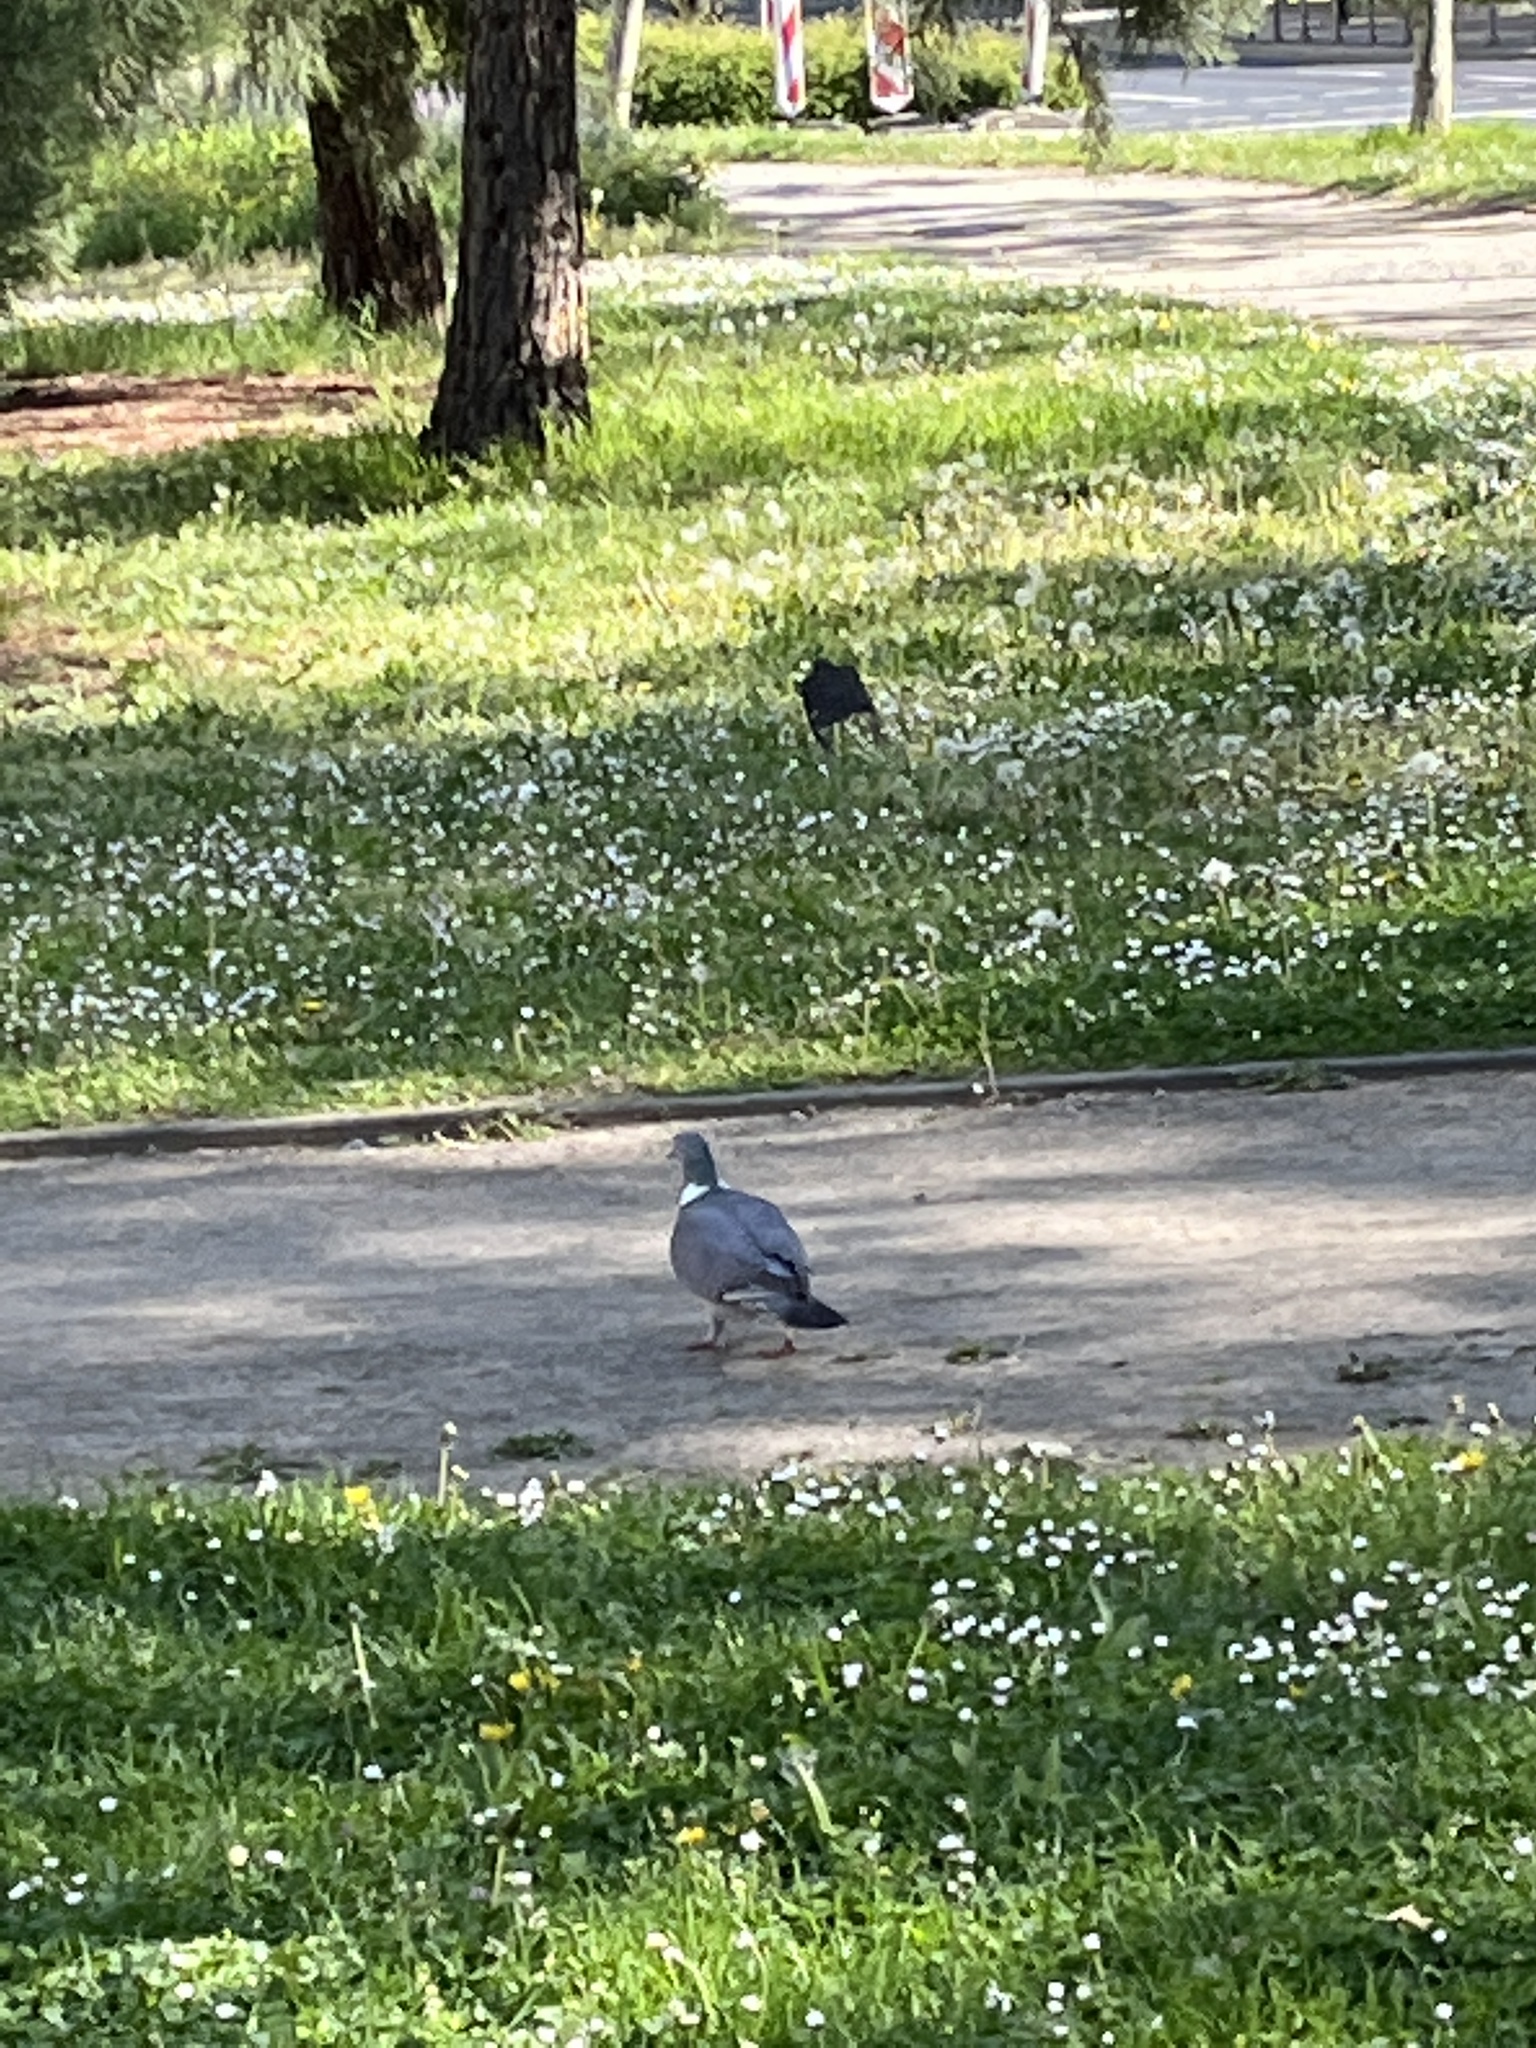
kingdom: Animalia
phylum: Chordata
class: Aves
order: Columbiformes
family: Columbidae
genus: Columba
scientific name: Columba palumbus
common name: Common wood pigeon
